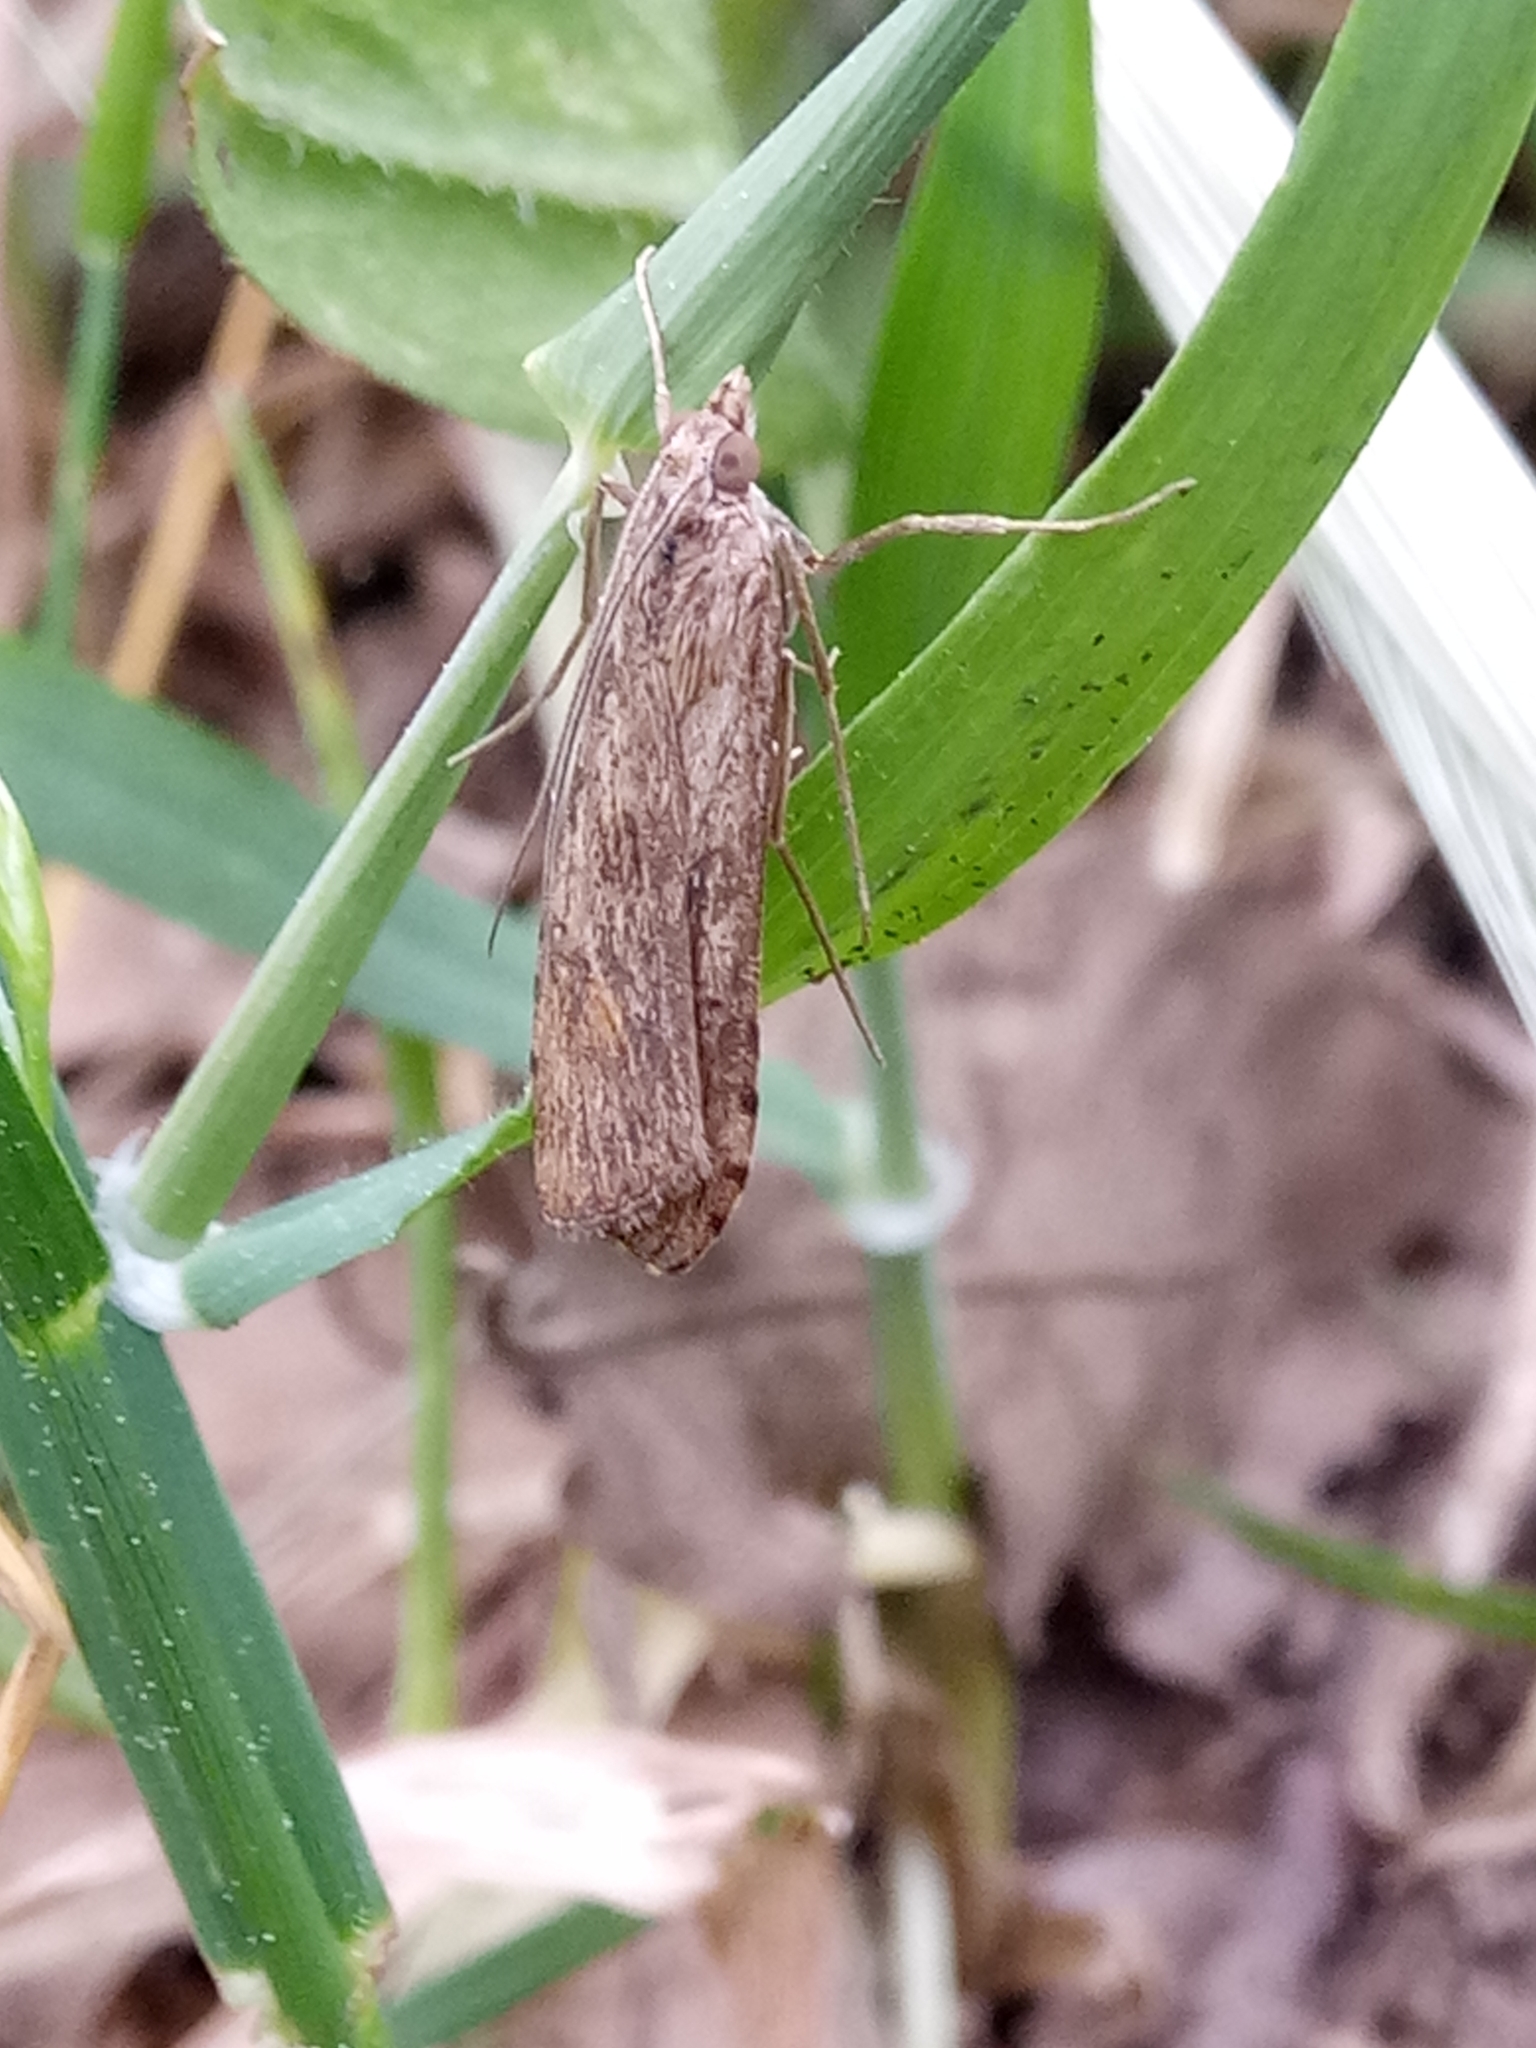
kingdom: Animalia
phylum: Arthropoda
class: Insecta
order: Lepidoptera
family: Crambidae
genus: Nomophila
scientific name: Nomophila noctuella
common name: Rush veneer
